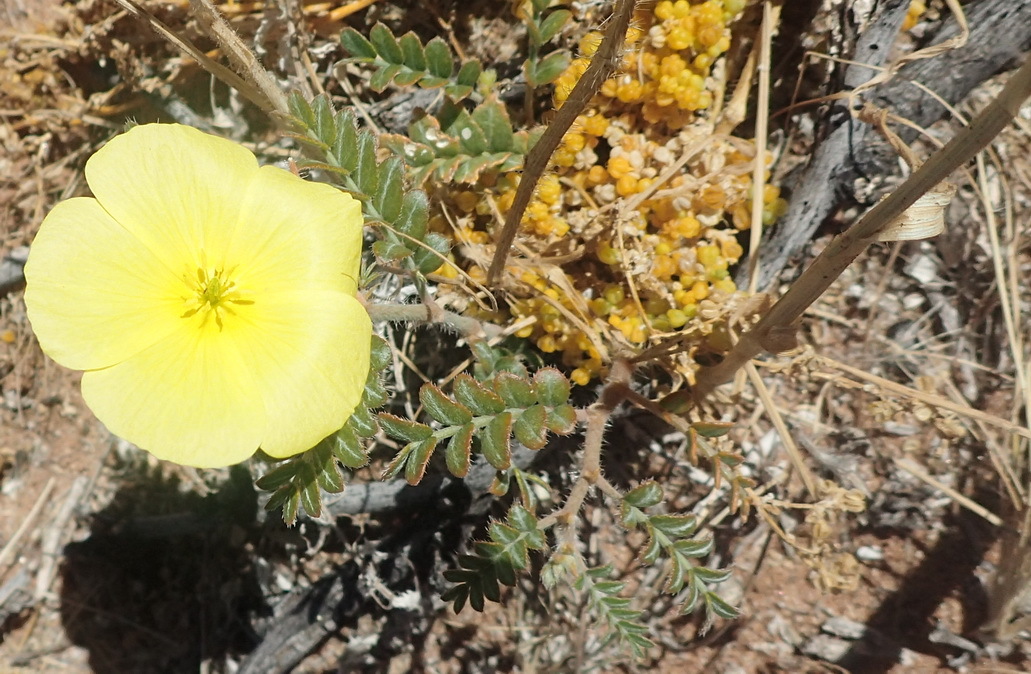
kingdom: Plantae
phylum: Tracheophyta
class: Magnoliopsida
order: Zygophyllales
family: Zygophyllaceae
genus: Tribulus
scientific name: Tribulus cristatus
